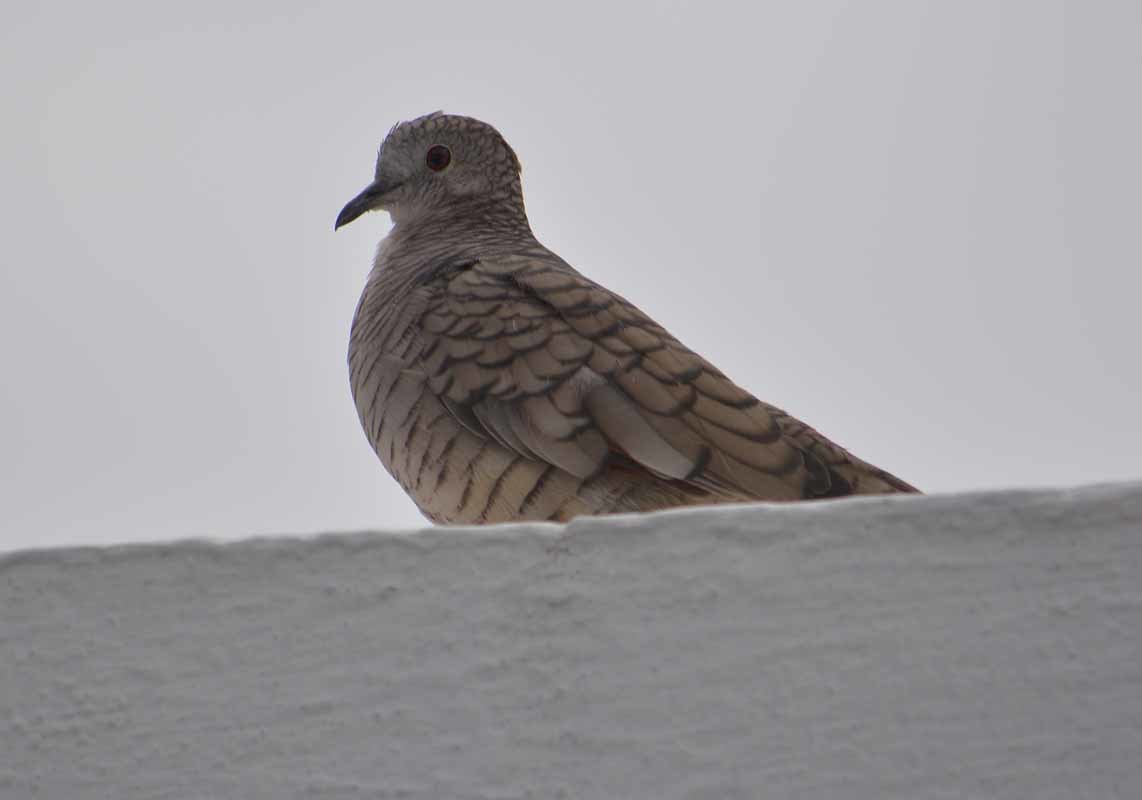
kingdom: Animalia
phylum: Chordata
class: Aves
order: Columbiformes
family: Columbidae
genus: Columbina
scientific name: Columbina inca
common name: Inca dove
